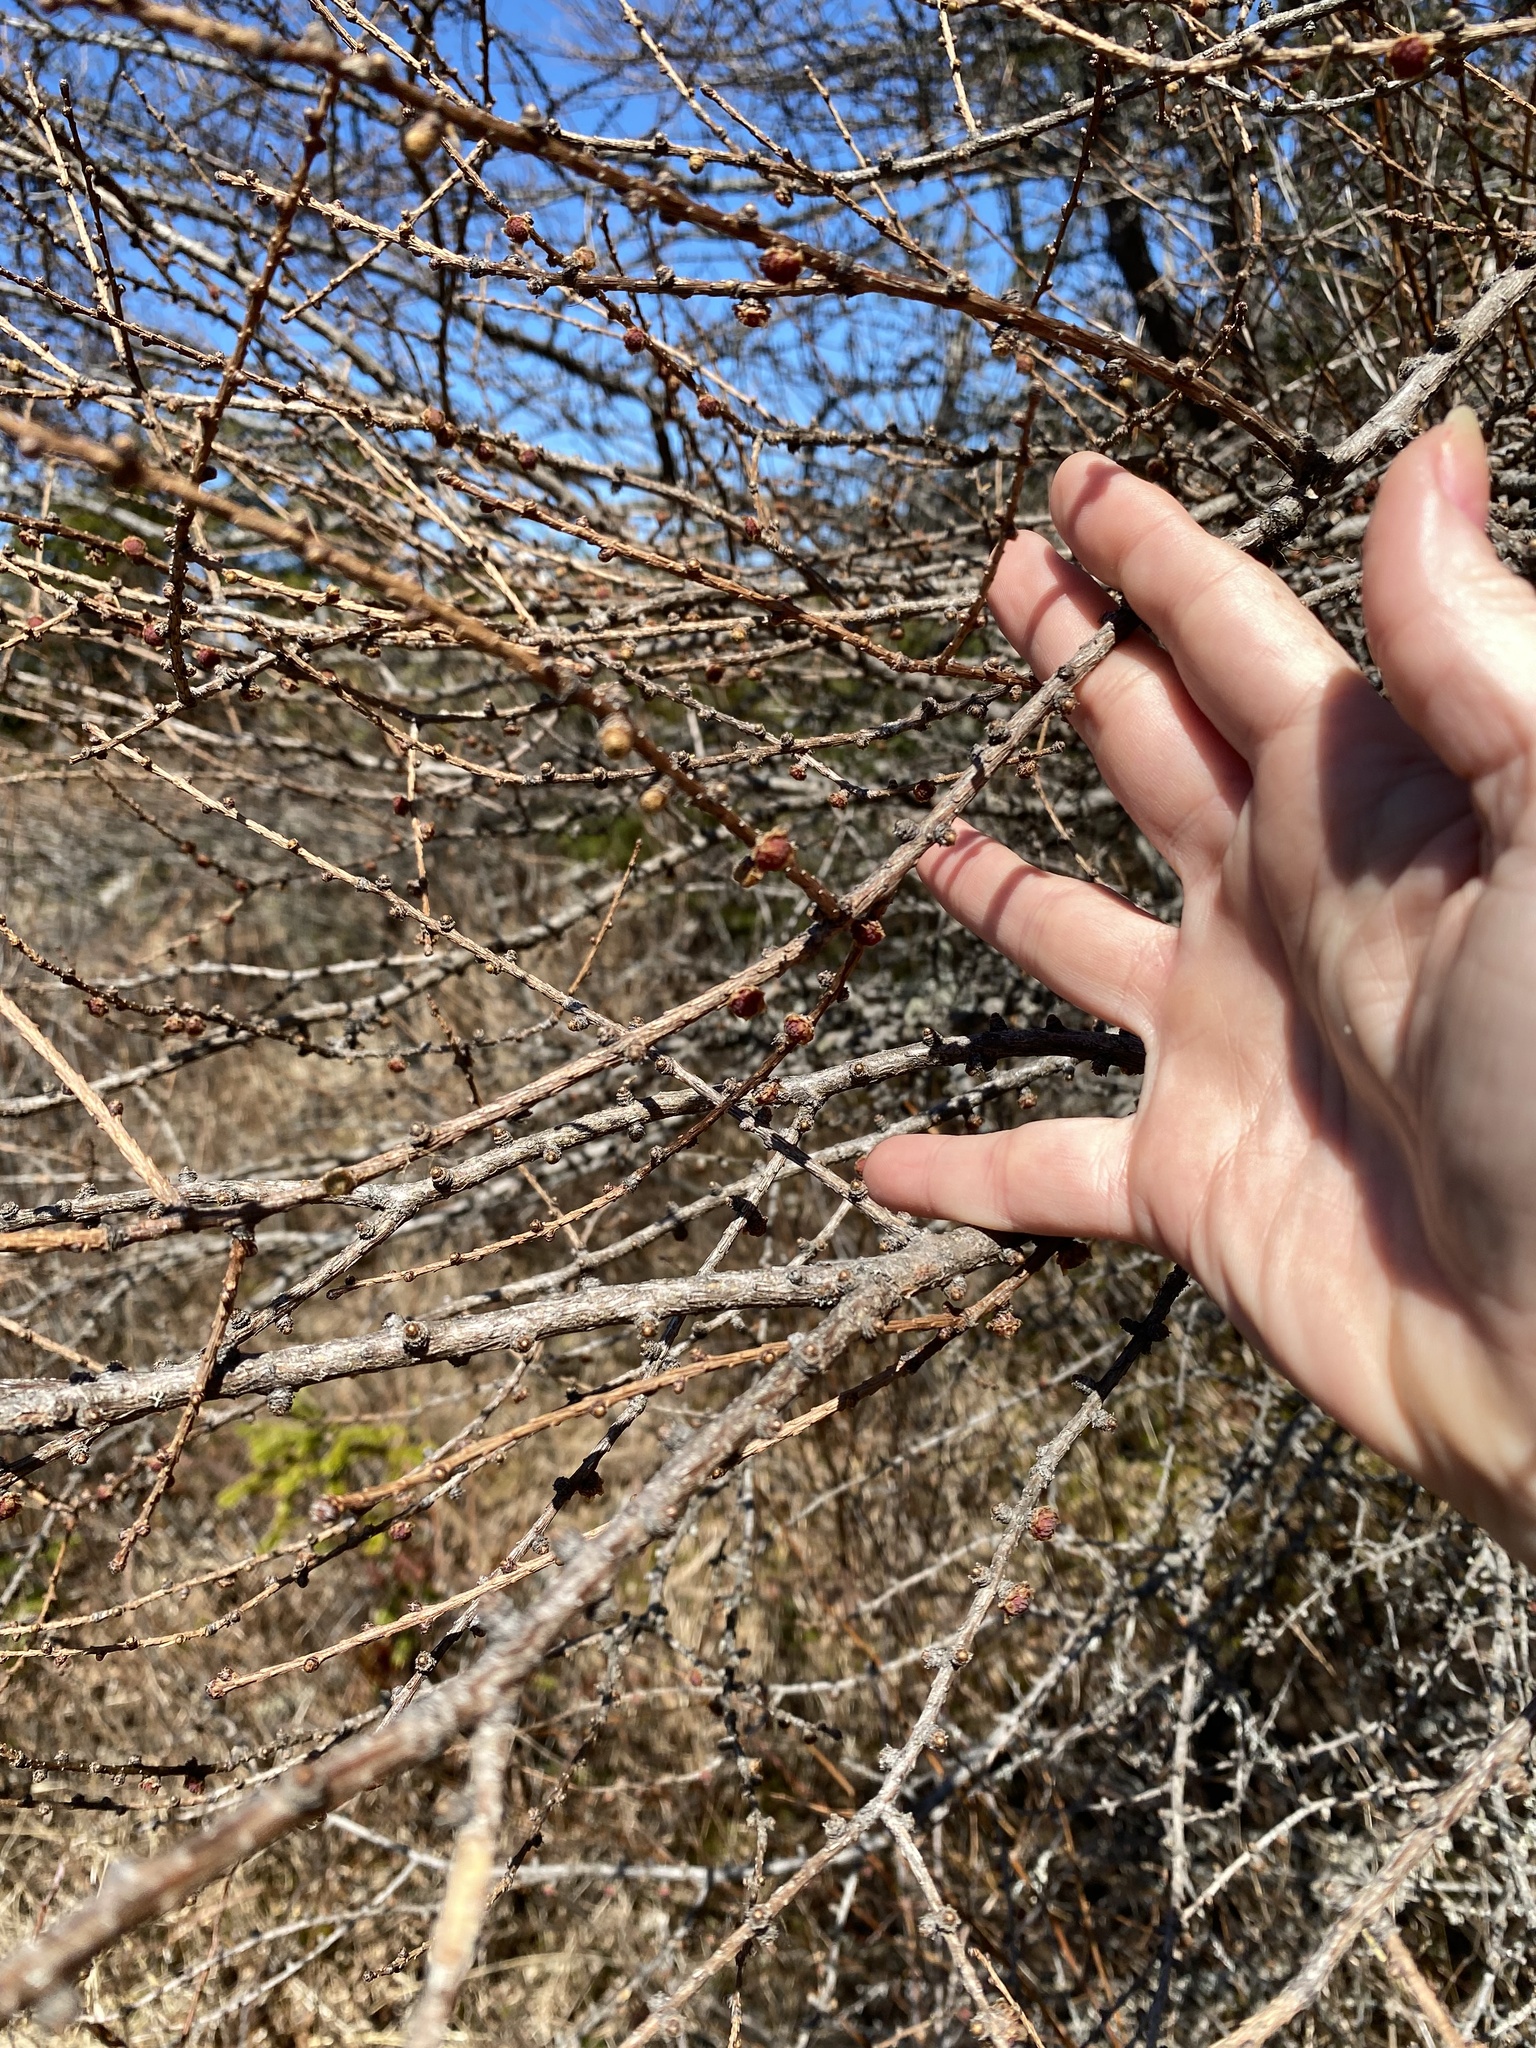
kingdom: Plantae
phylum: Tracheophyta
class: Pinopsida
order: Pinales
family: Pinaceae
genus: Larix
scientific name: Larix laricina
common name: American larch
